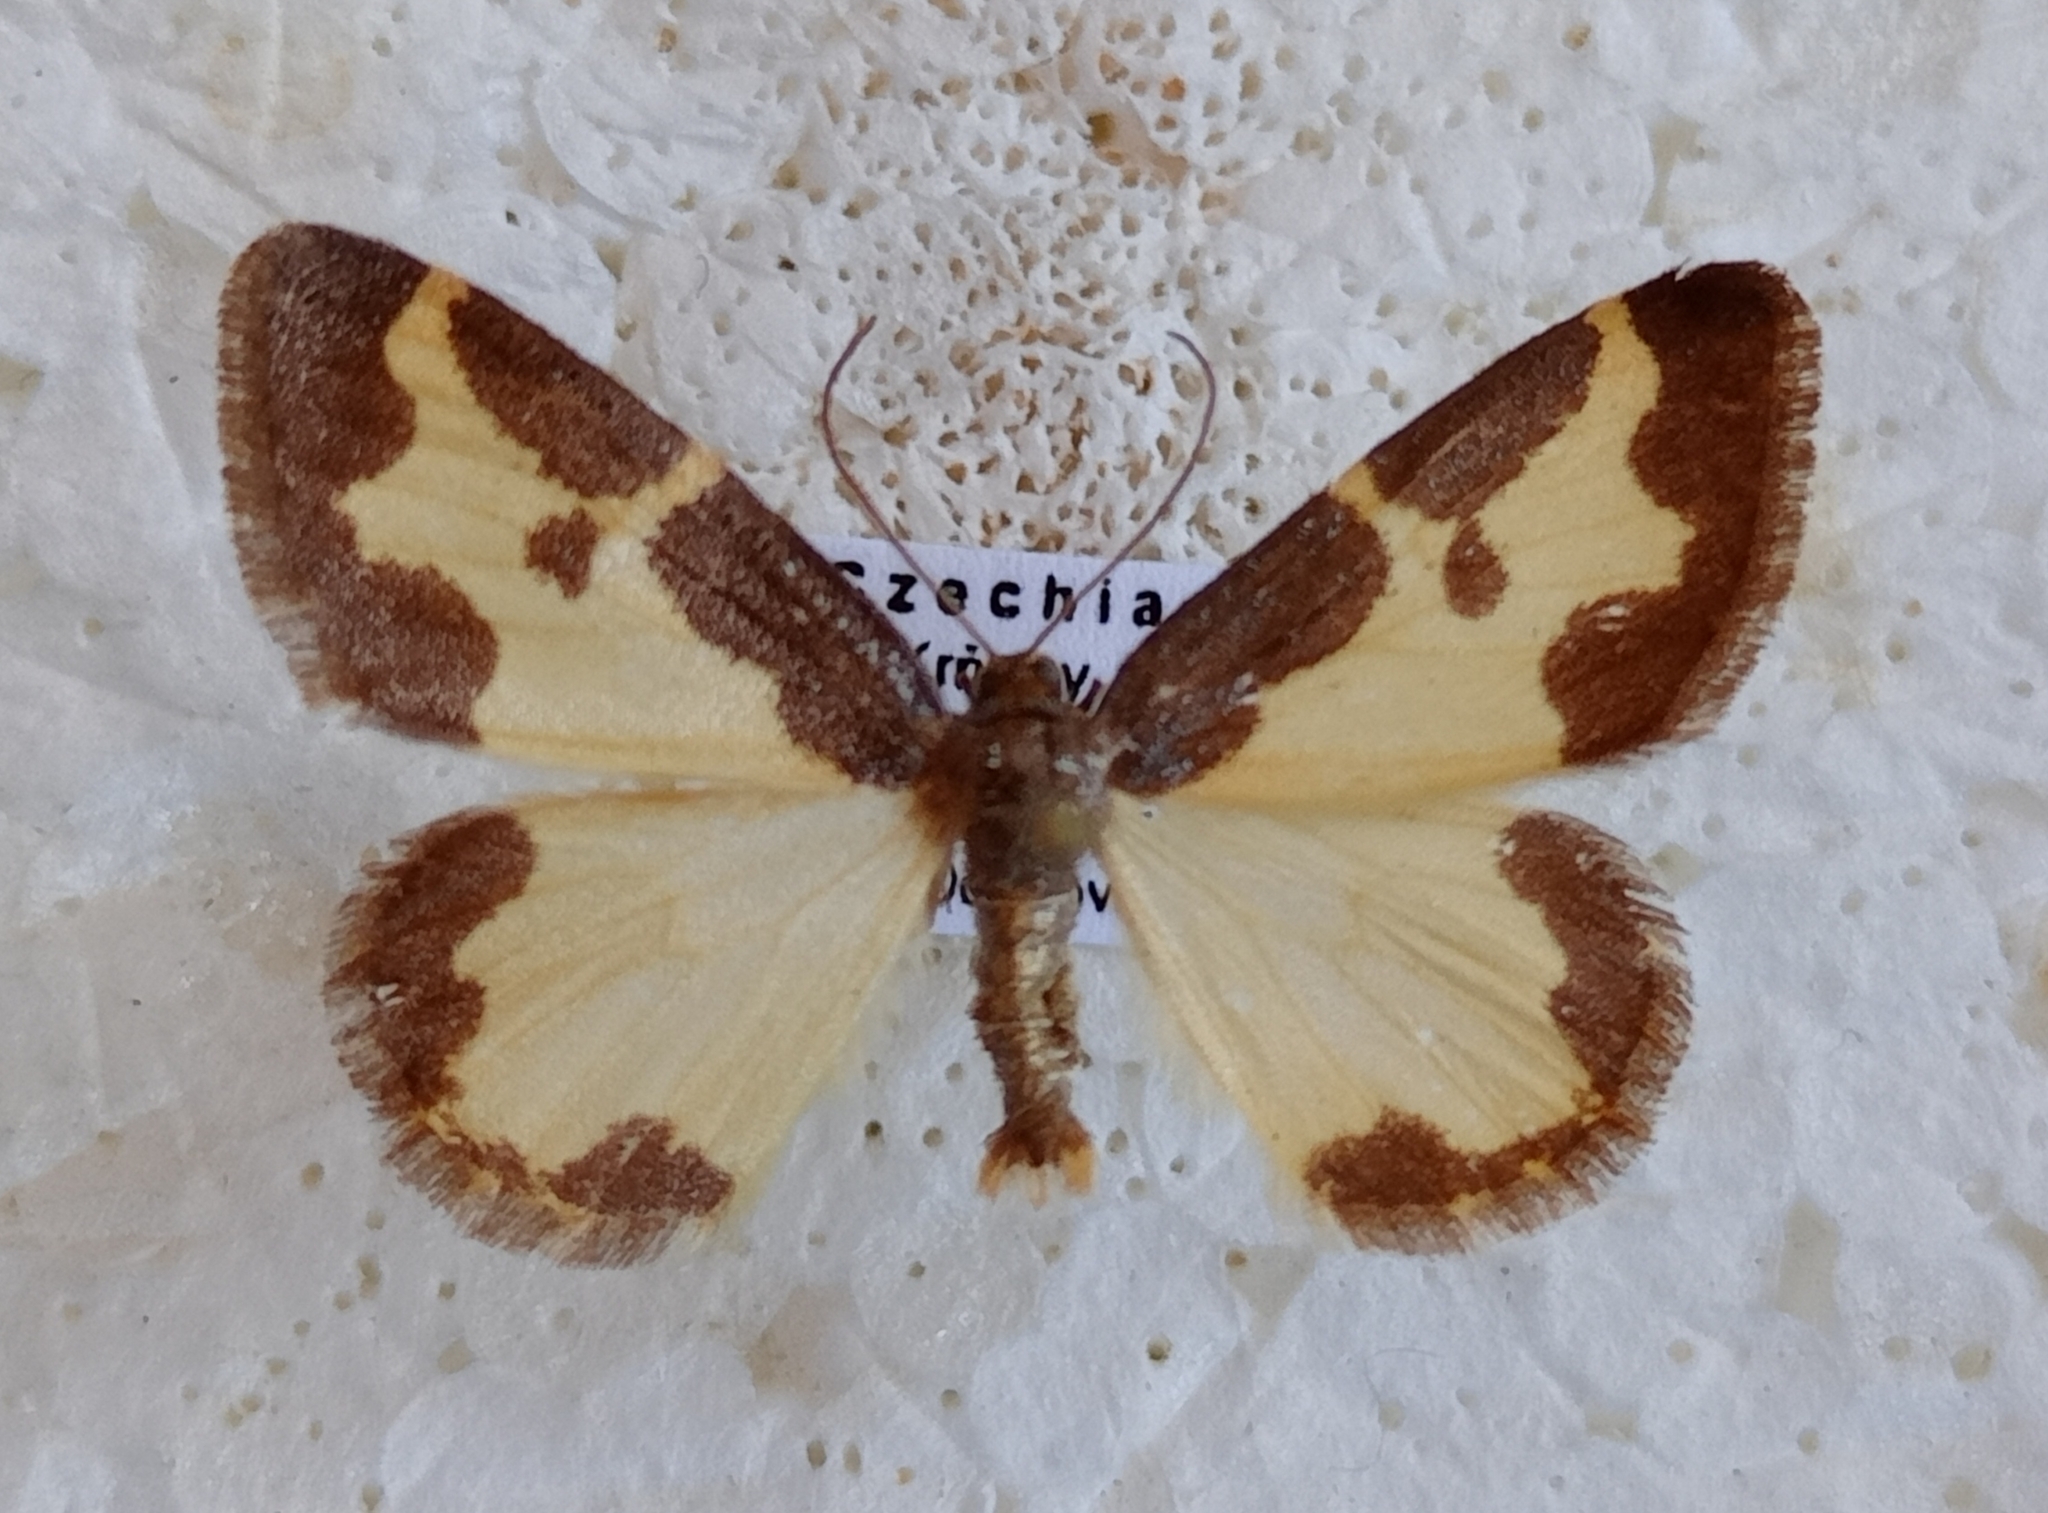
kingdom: Animalia
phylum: Arthropoda
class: Insecta
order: Lepidoptera
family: Geometridae
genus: Lomaspilis
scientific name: Lomaspilis marginata
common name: Clouded border
